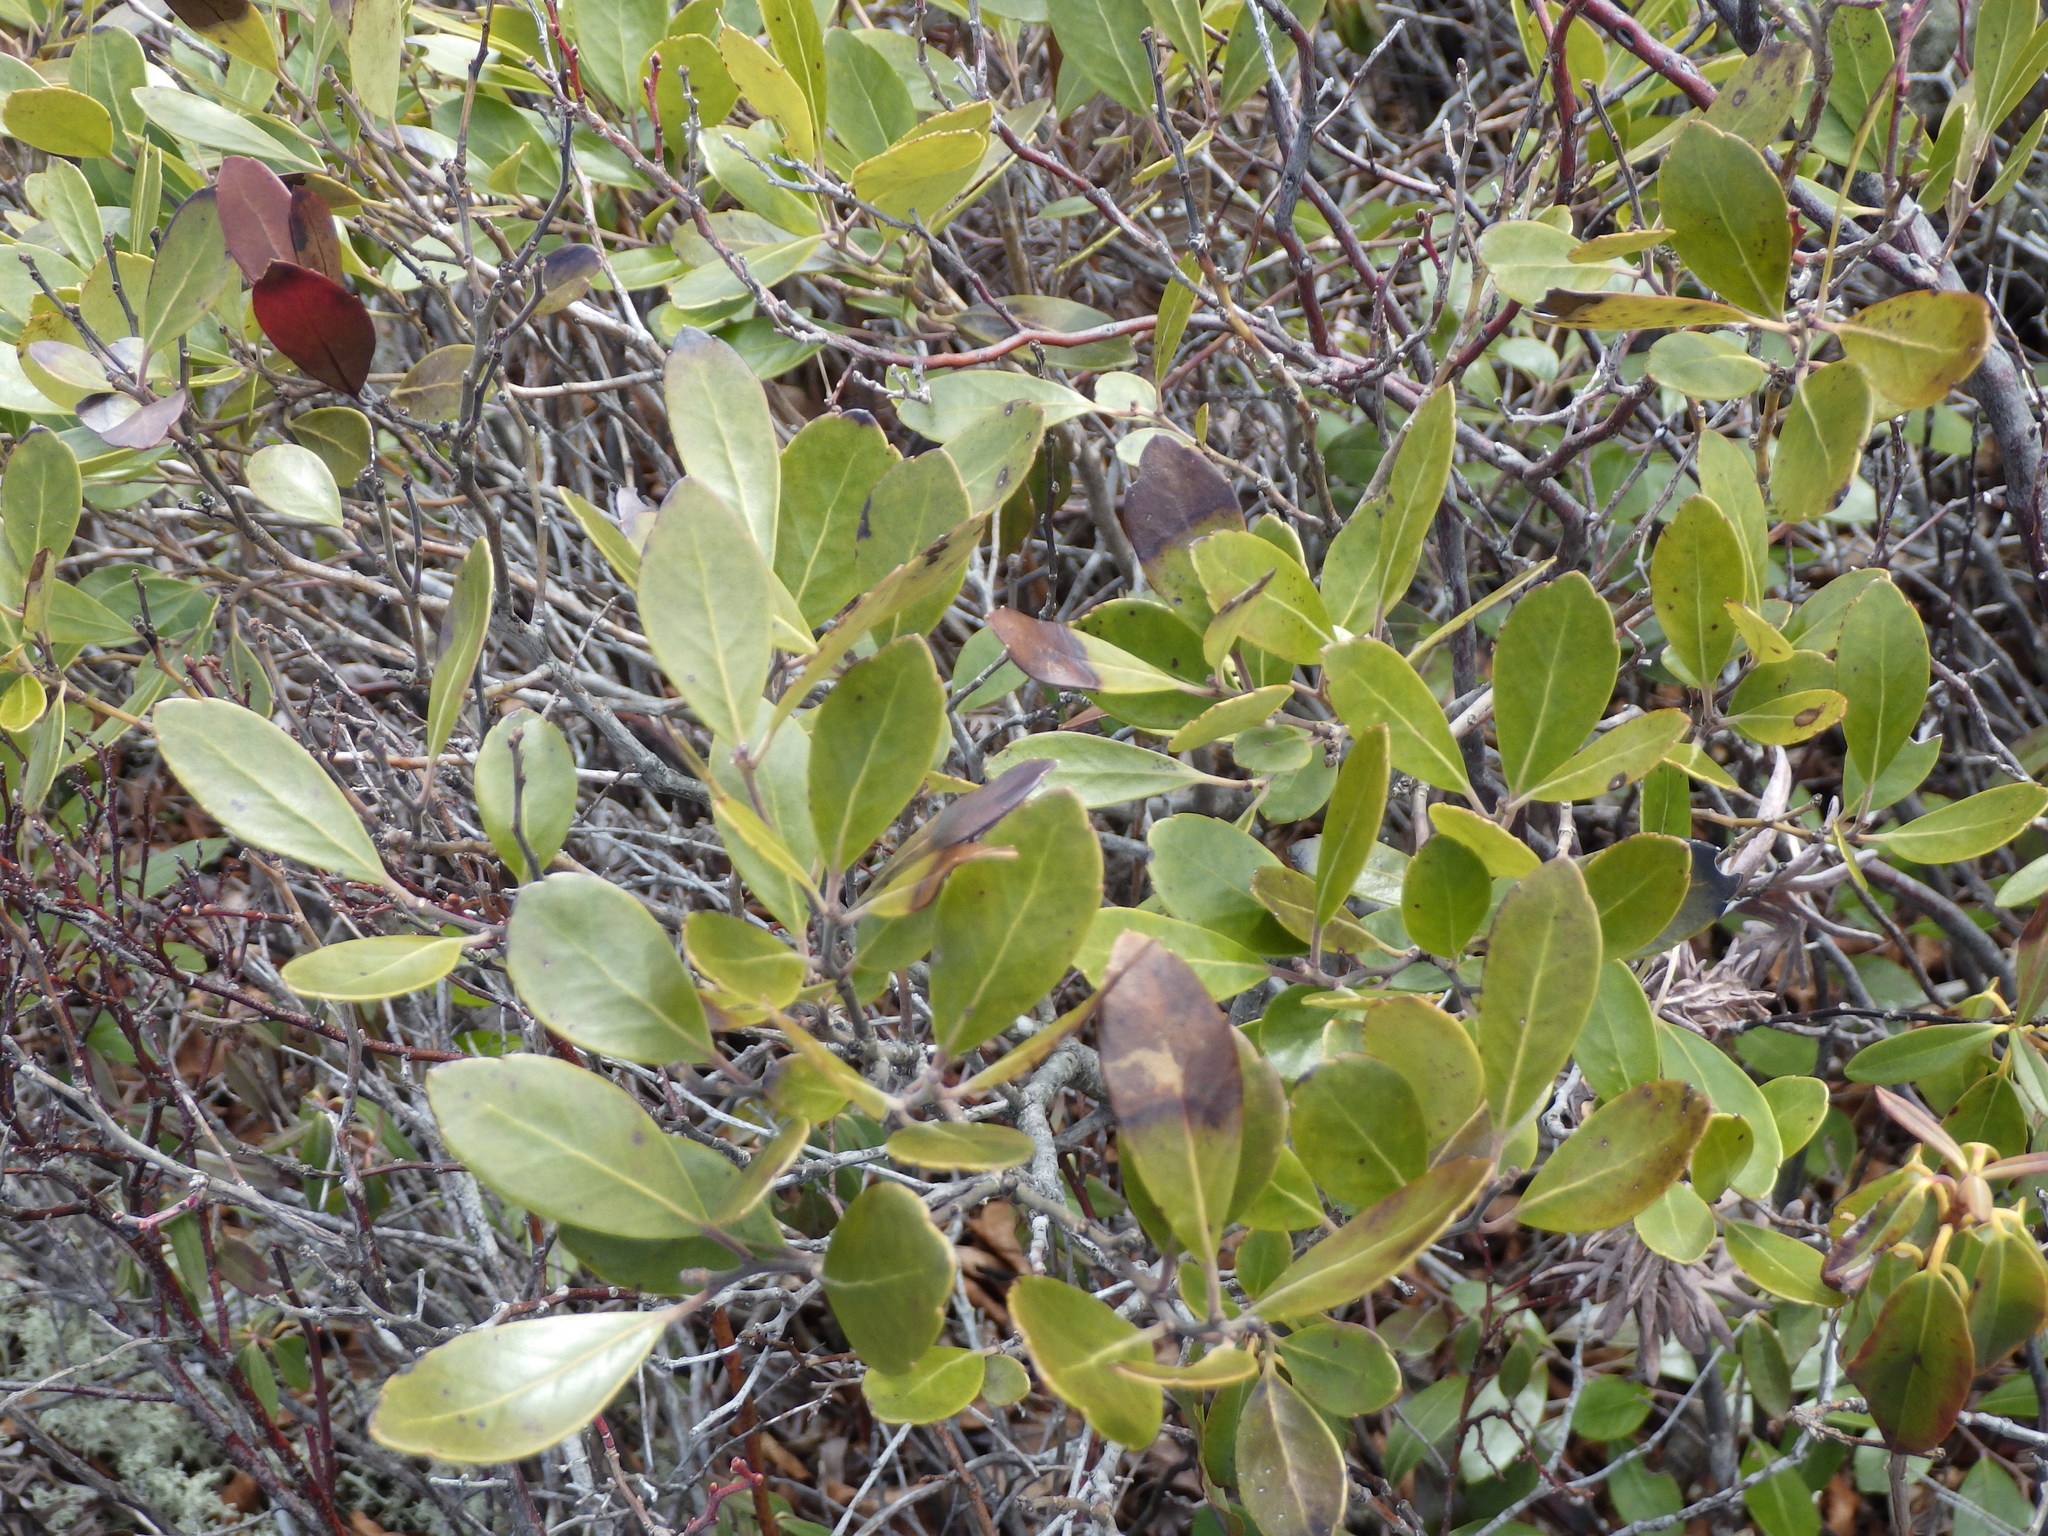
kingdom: Plantae
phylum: Tracheophyta
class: Magnoliopsida
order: Aquifoliales
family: Aquifoliaceae
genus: Ilex
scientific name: Ilex glabra
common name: Bitter gallberry
